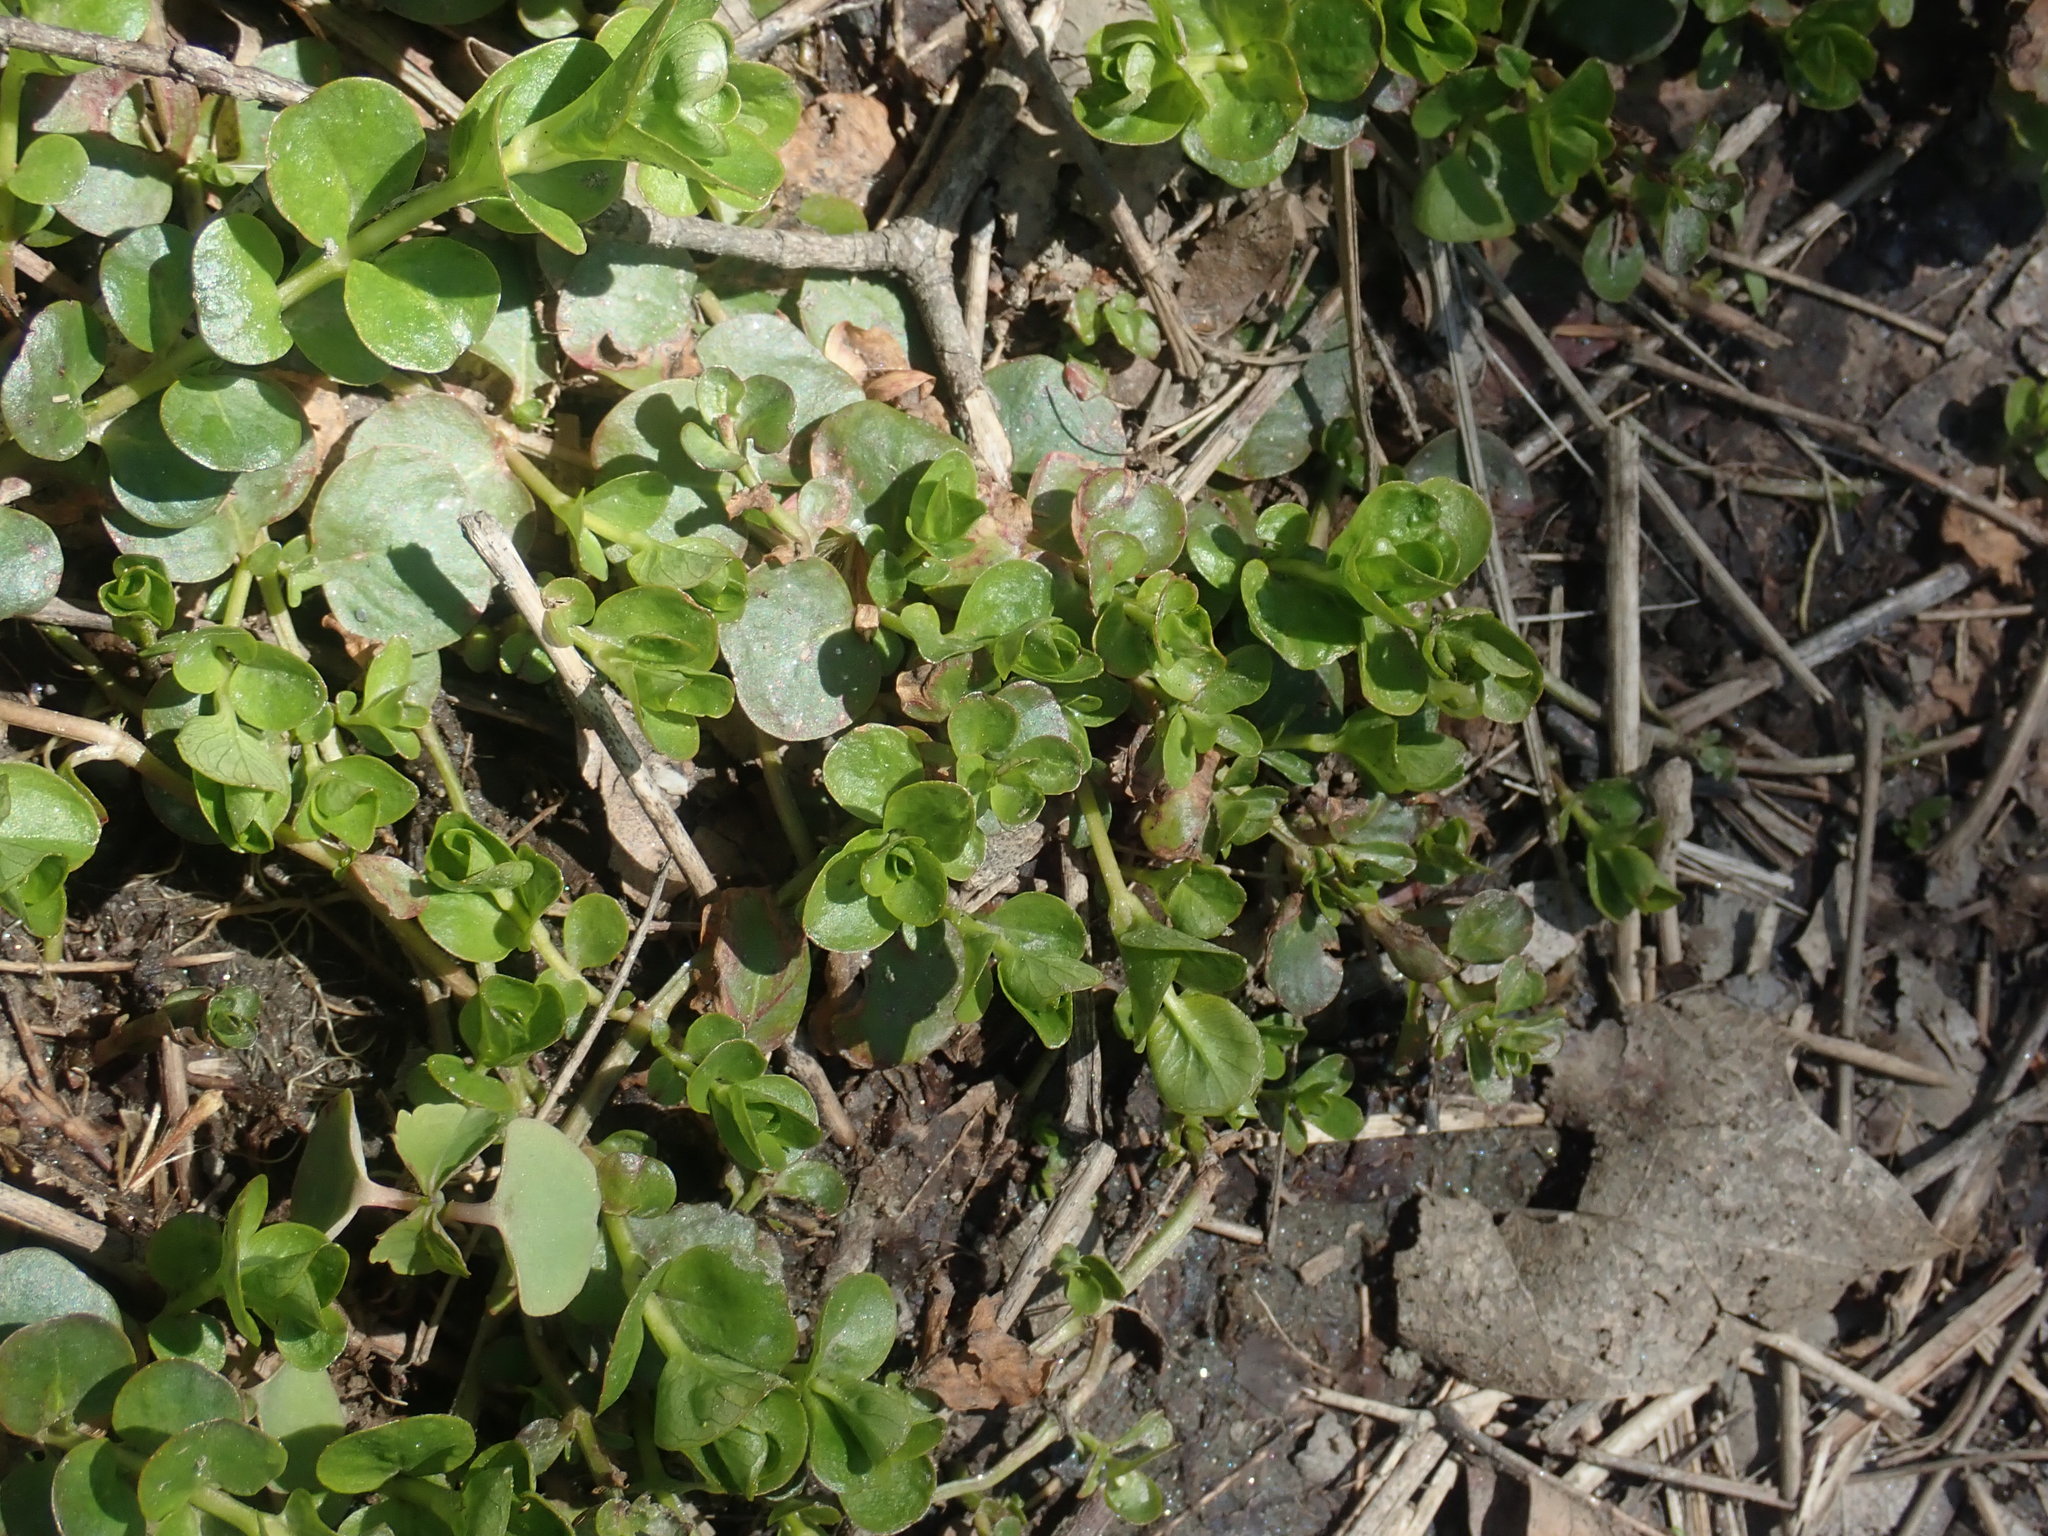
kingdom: Plantae
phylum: Tracheophyta
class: Magnoliopsida
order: Ericales
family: Primulaceae
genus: Lysimachia
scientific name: Lysimachia nummularia
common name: Moneywort
